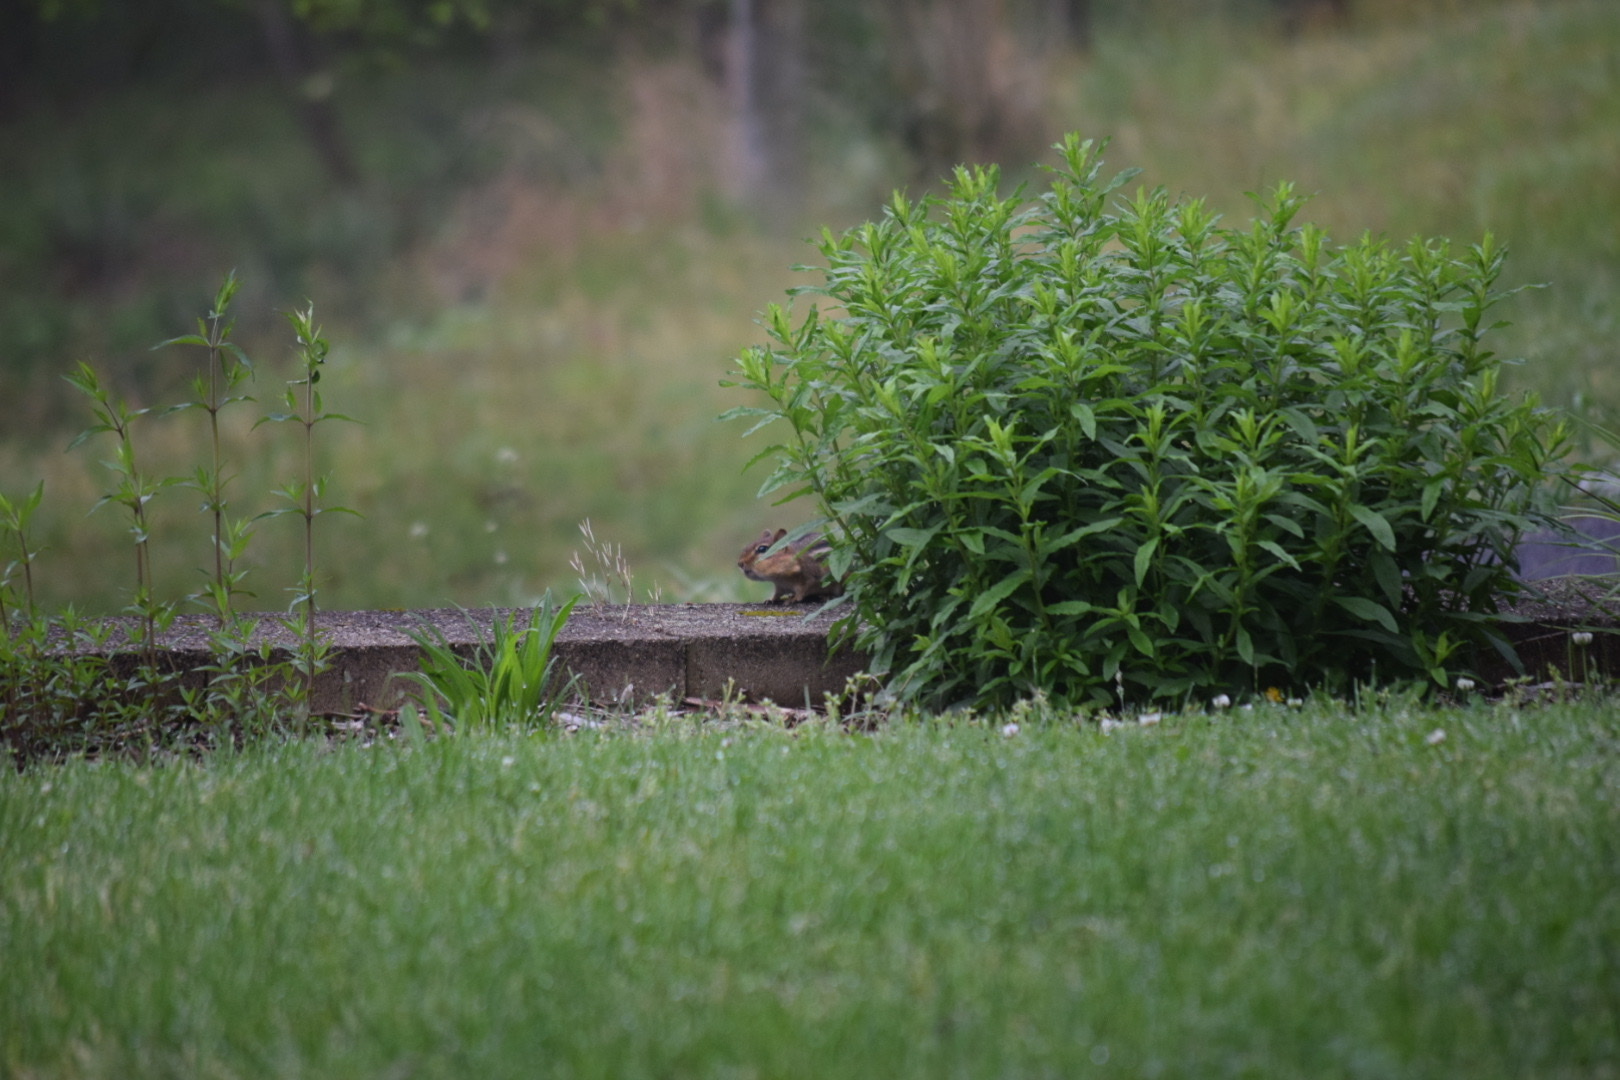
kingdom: Animalia
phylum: Chordata
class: Mammalia
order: Rodentia
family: Sciuridae
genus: Tamias
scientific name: Tamias striatus
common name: Eastern chipmunk
